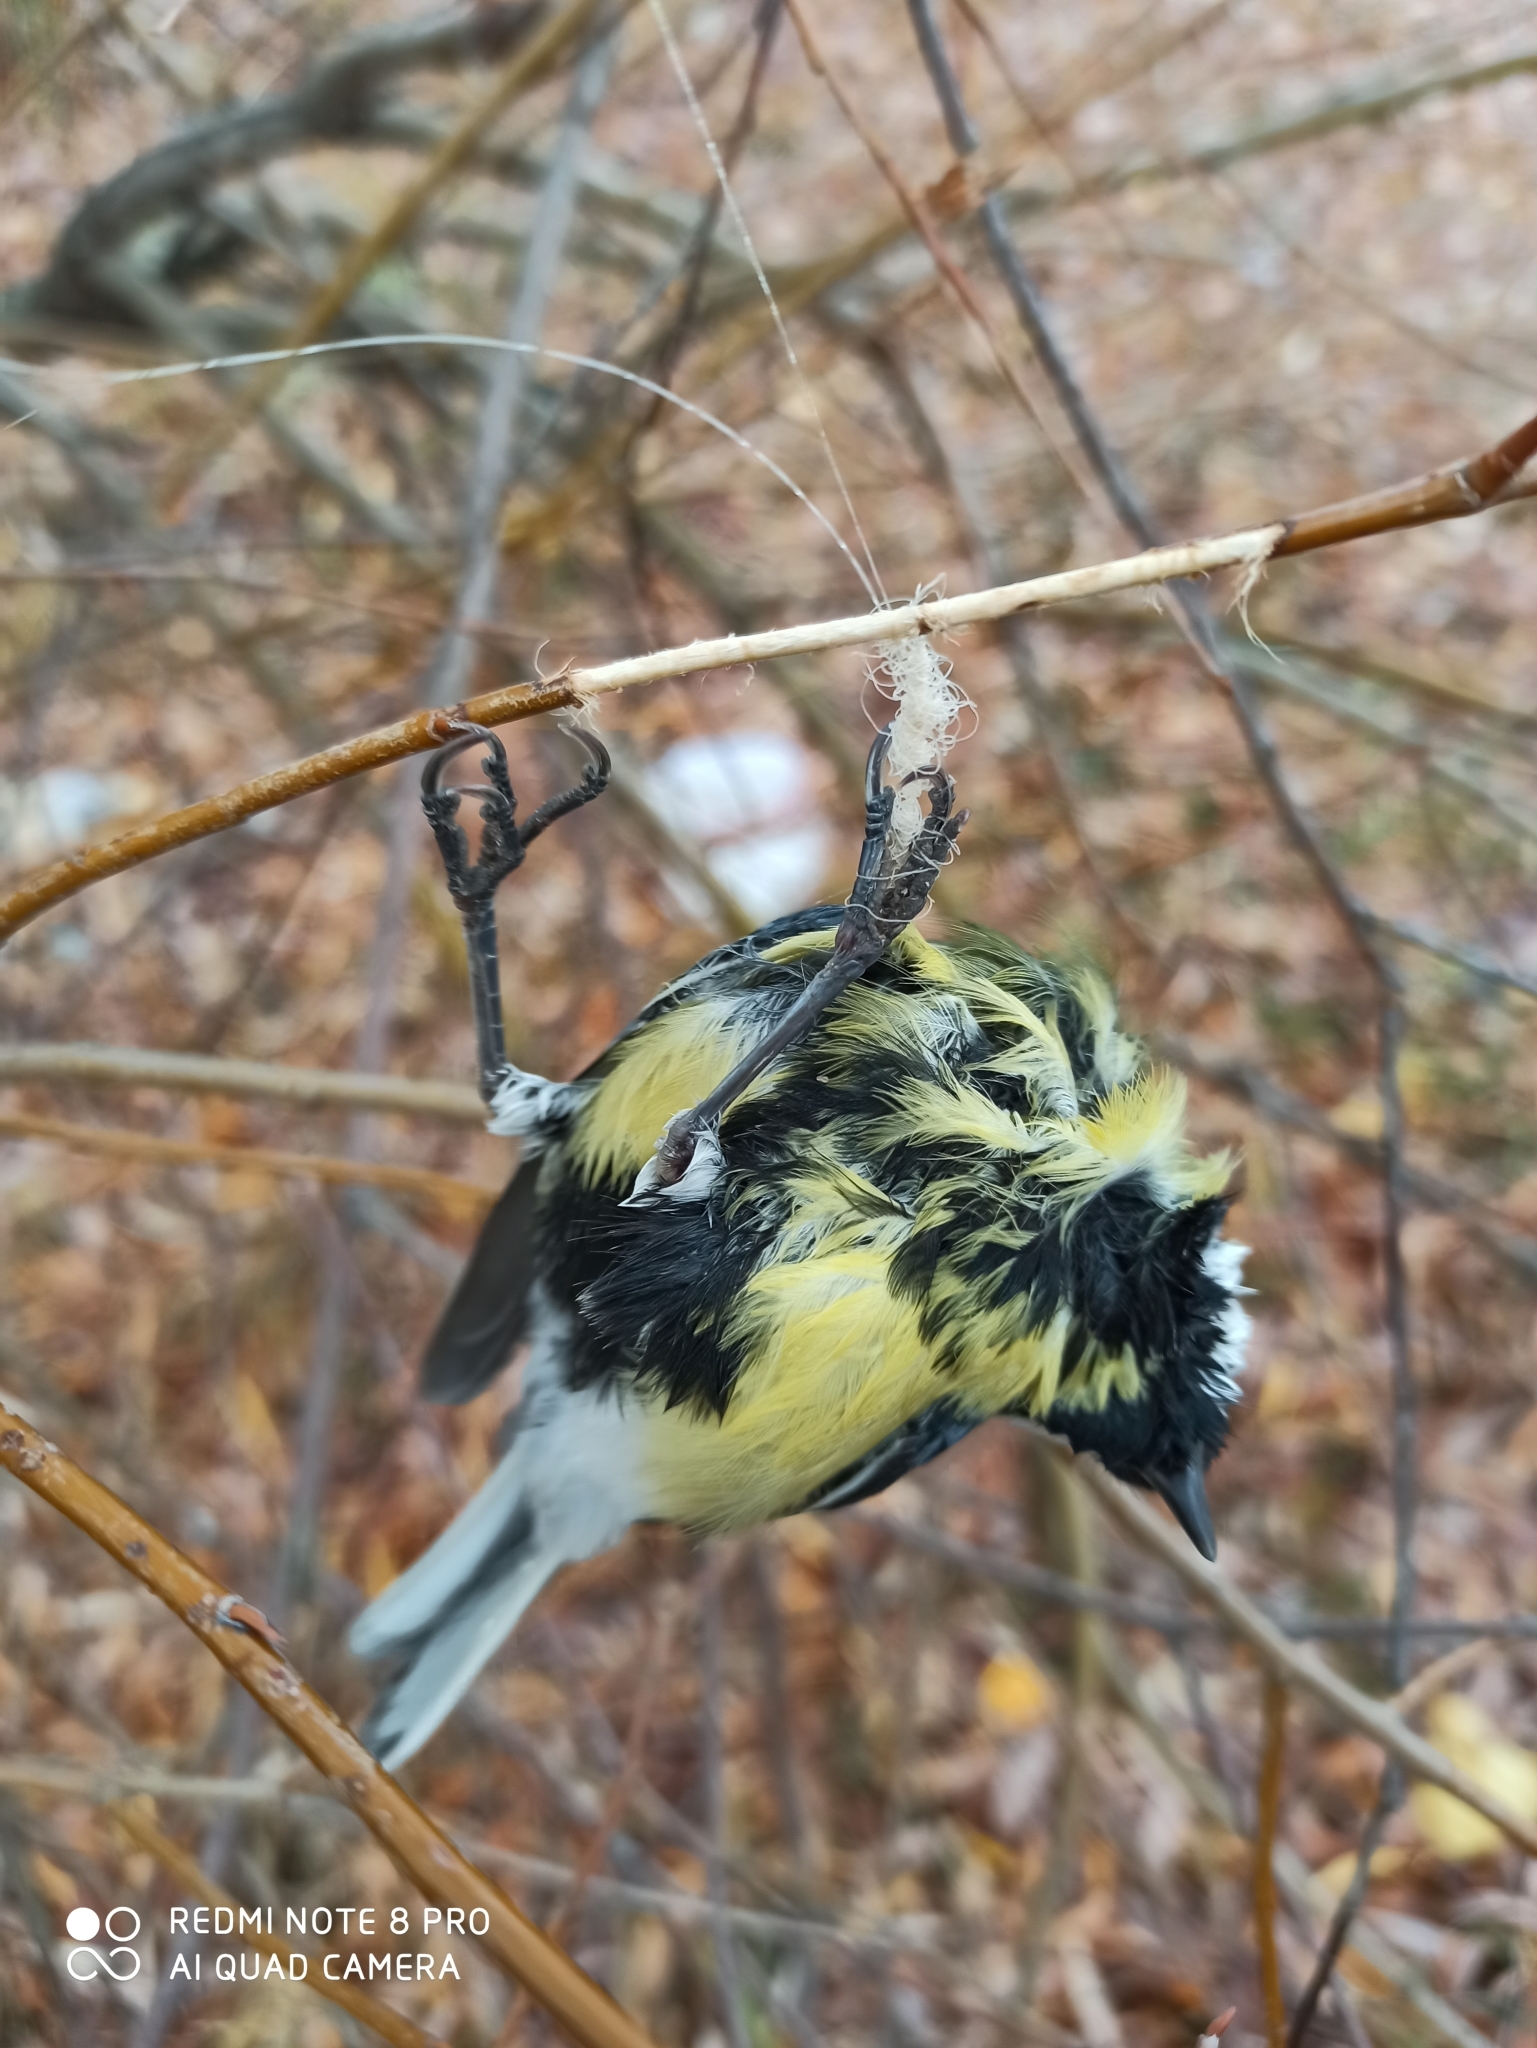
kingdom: Animalia
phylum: Chordata
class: Aves
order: Passeriformes
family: Paridae
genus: Parus
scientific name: Parus major
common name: Great tit
